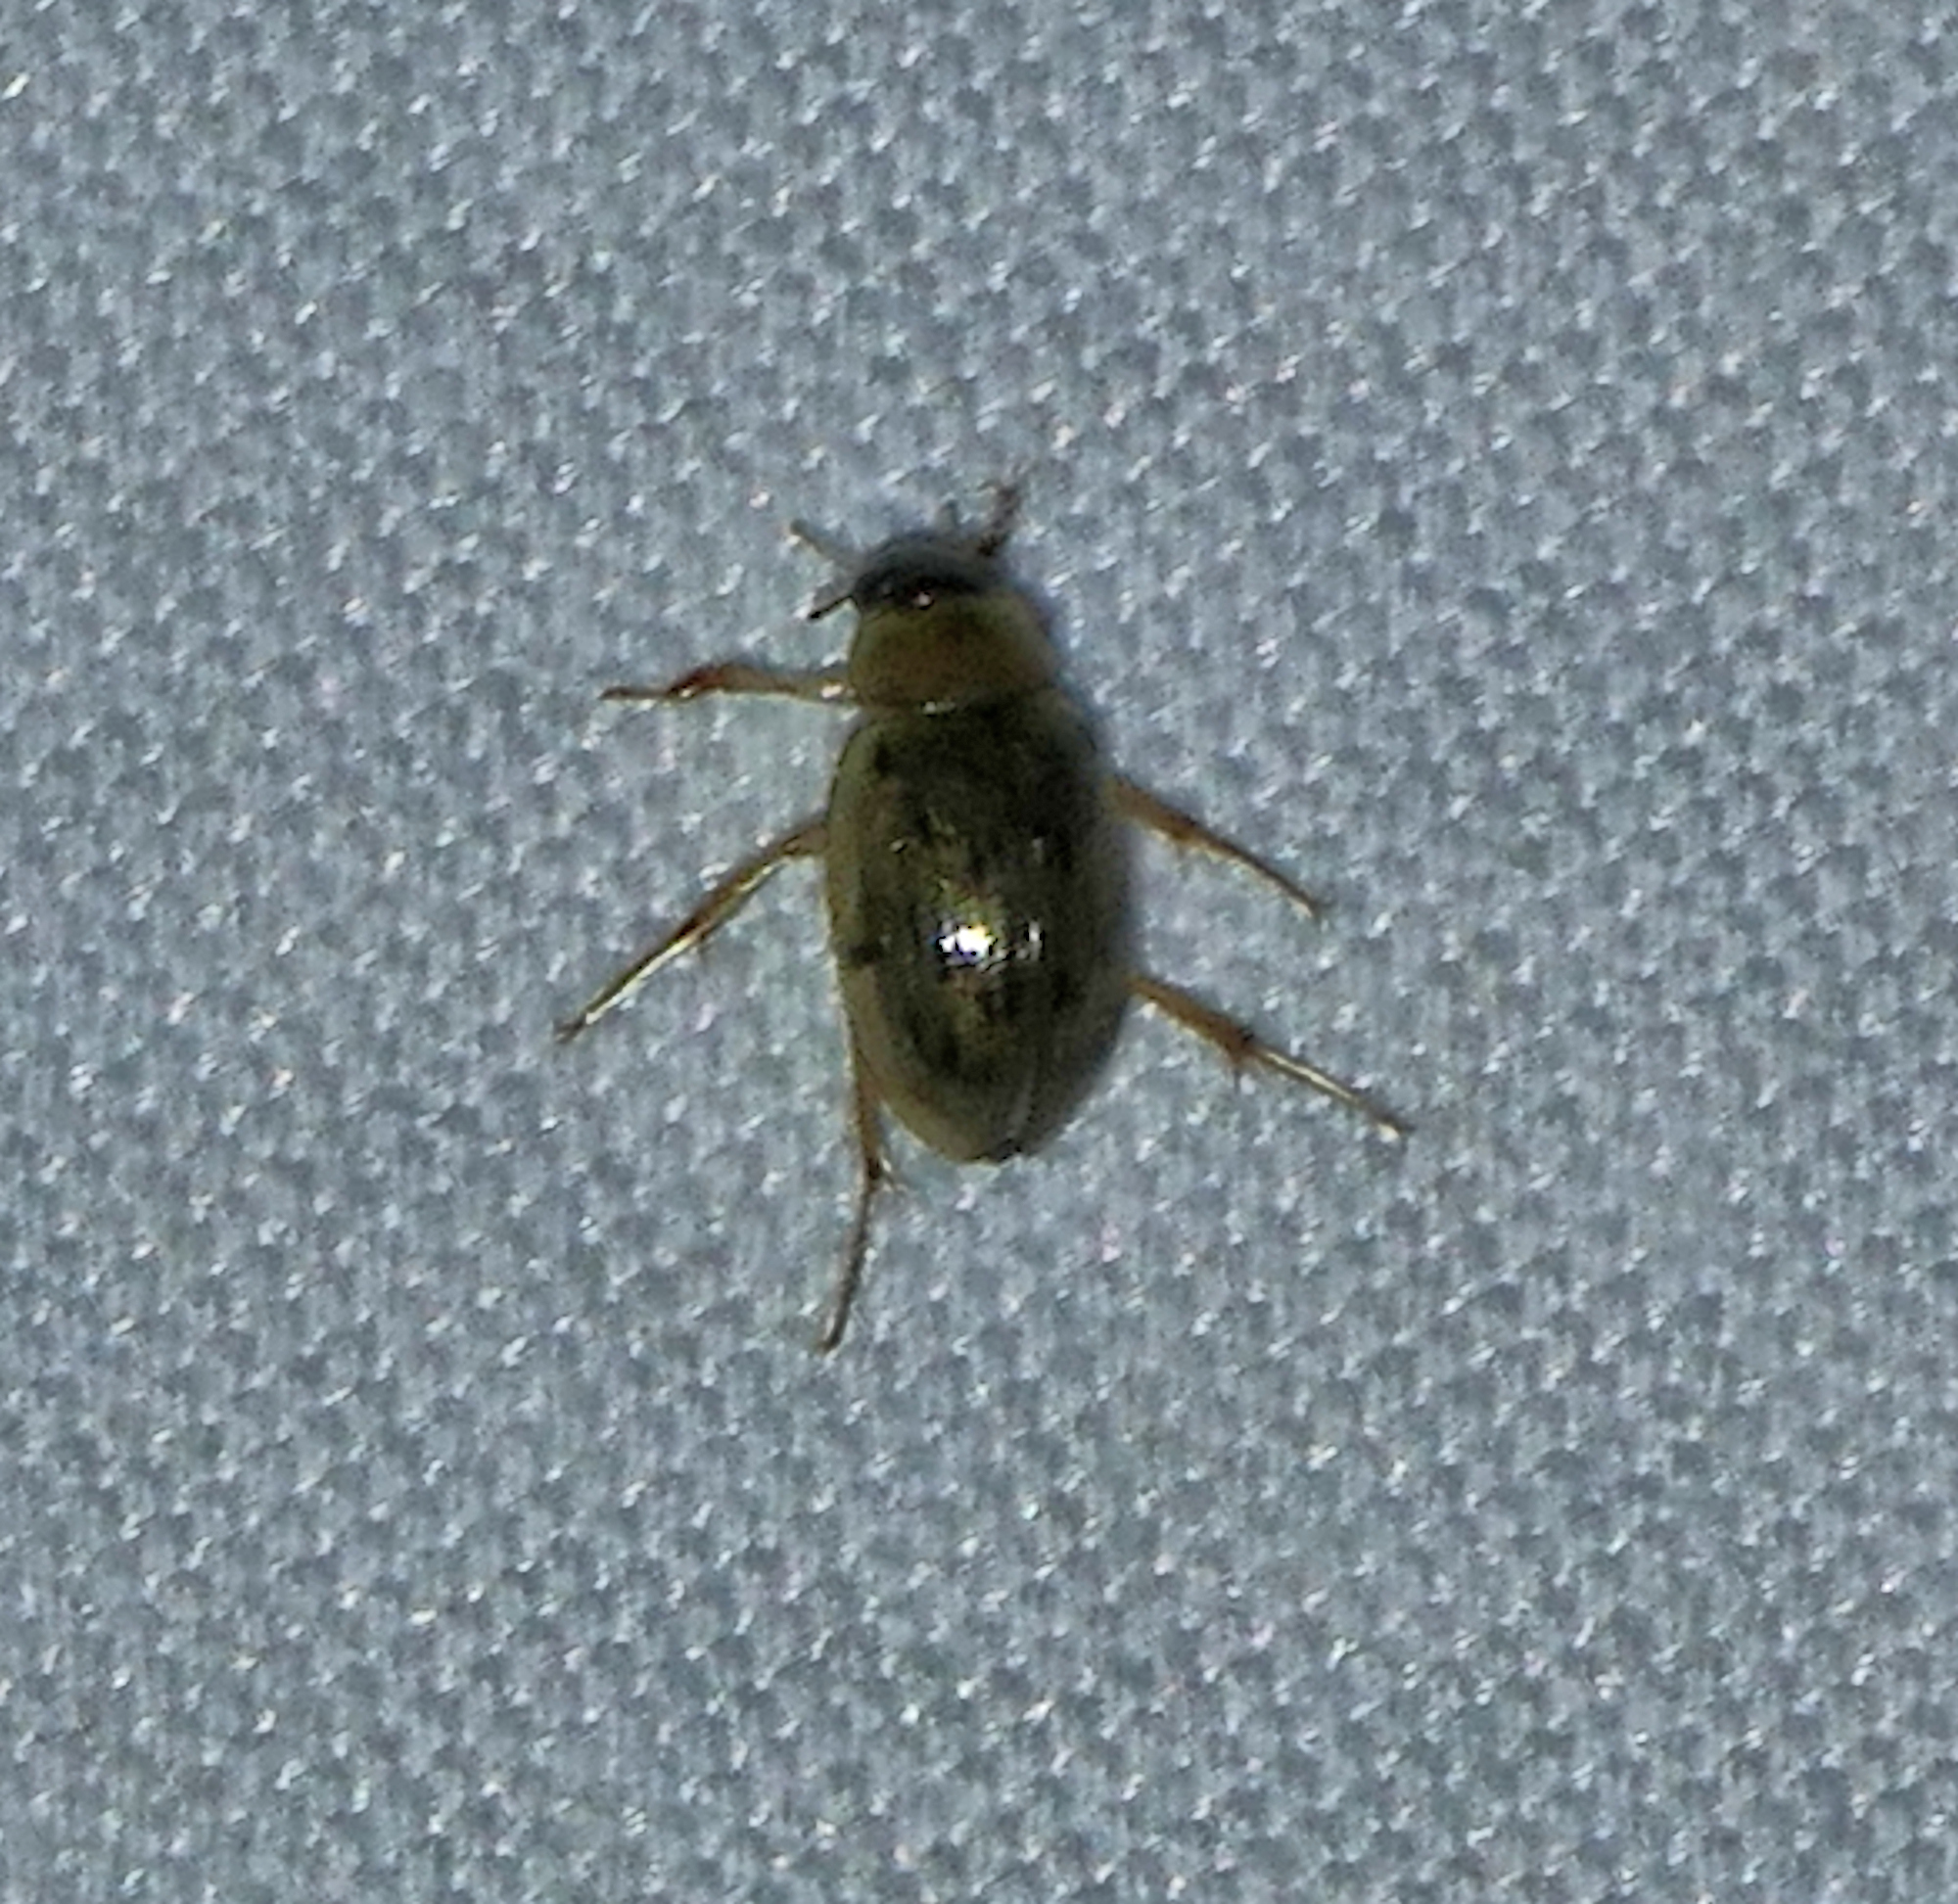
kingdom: Animalia
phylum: Arthropoda
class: Insecta
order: Coleoptera
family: Hydrophilidae
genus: Berosus
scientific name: Berosus
